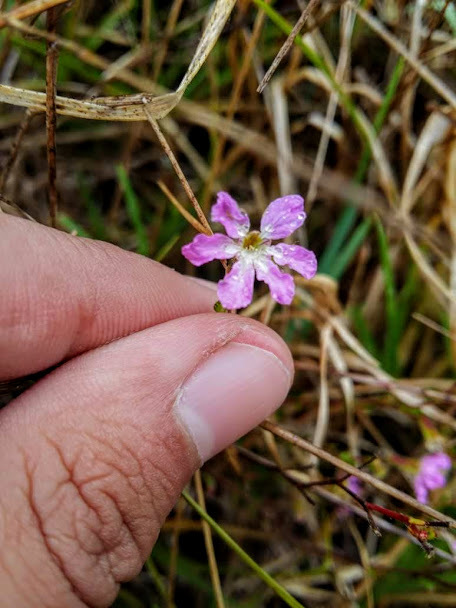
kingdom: Plantae
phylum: Tracheophyta
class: Magnoliopsida
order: Myrtales
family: Lythraceae
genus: Cuphea
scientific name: Cuphea ciliata
